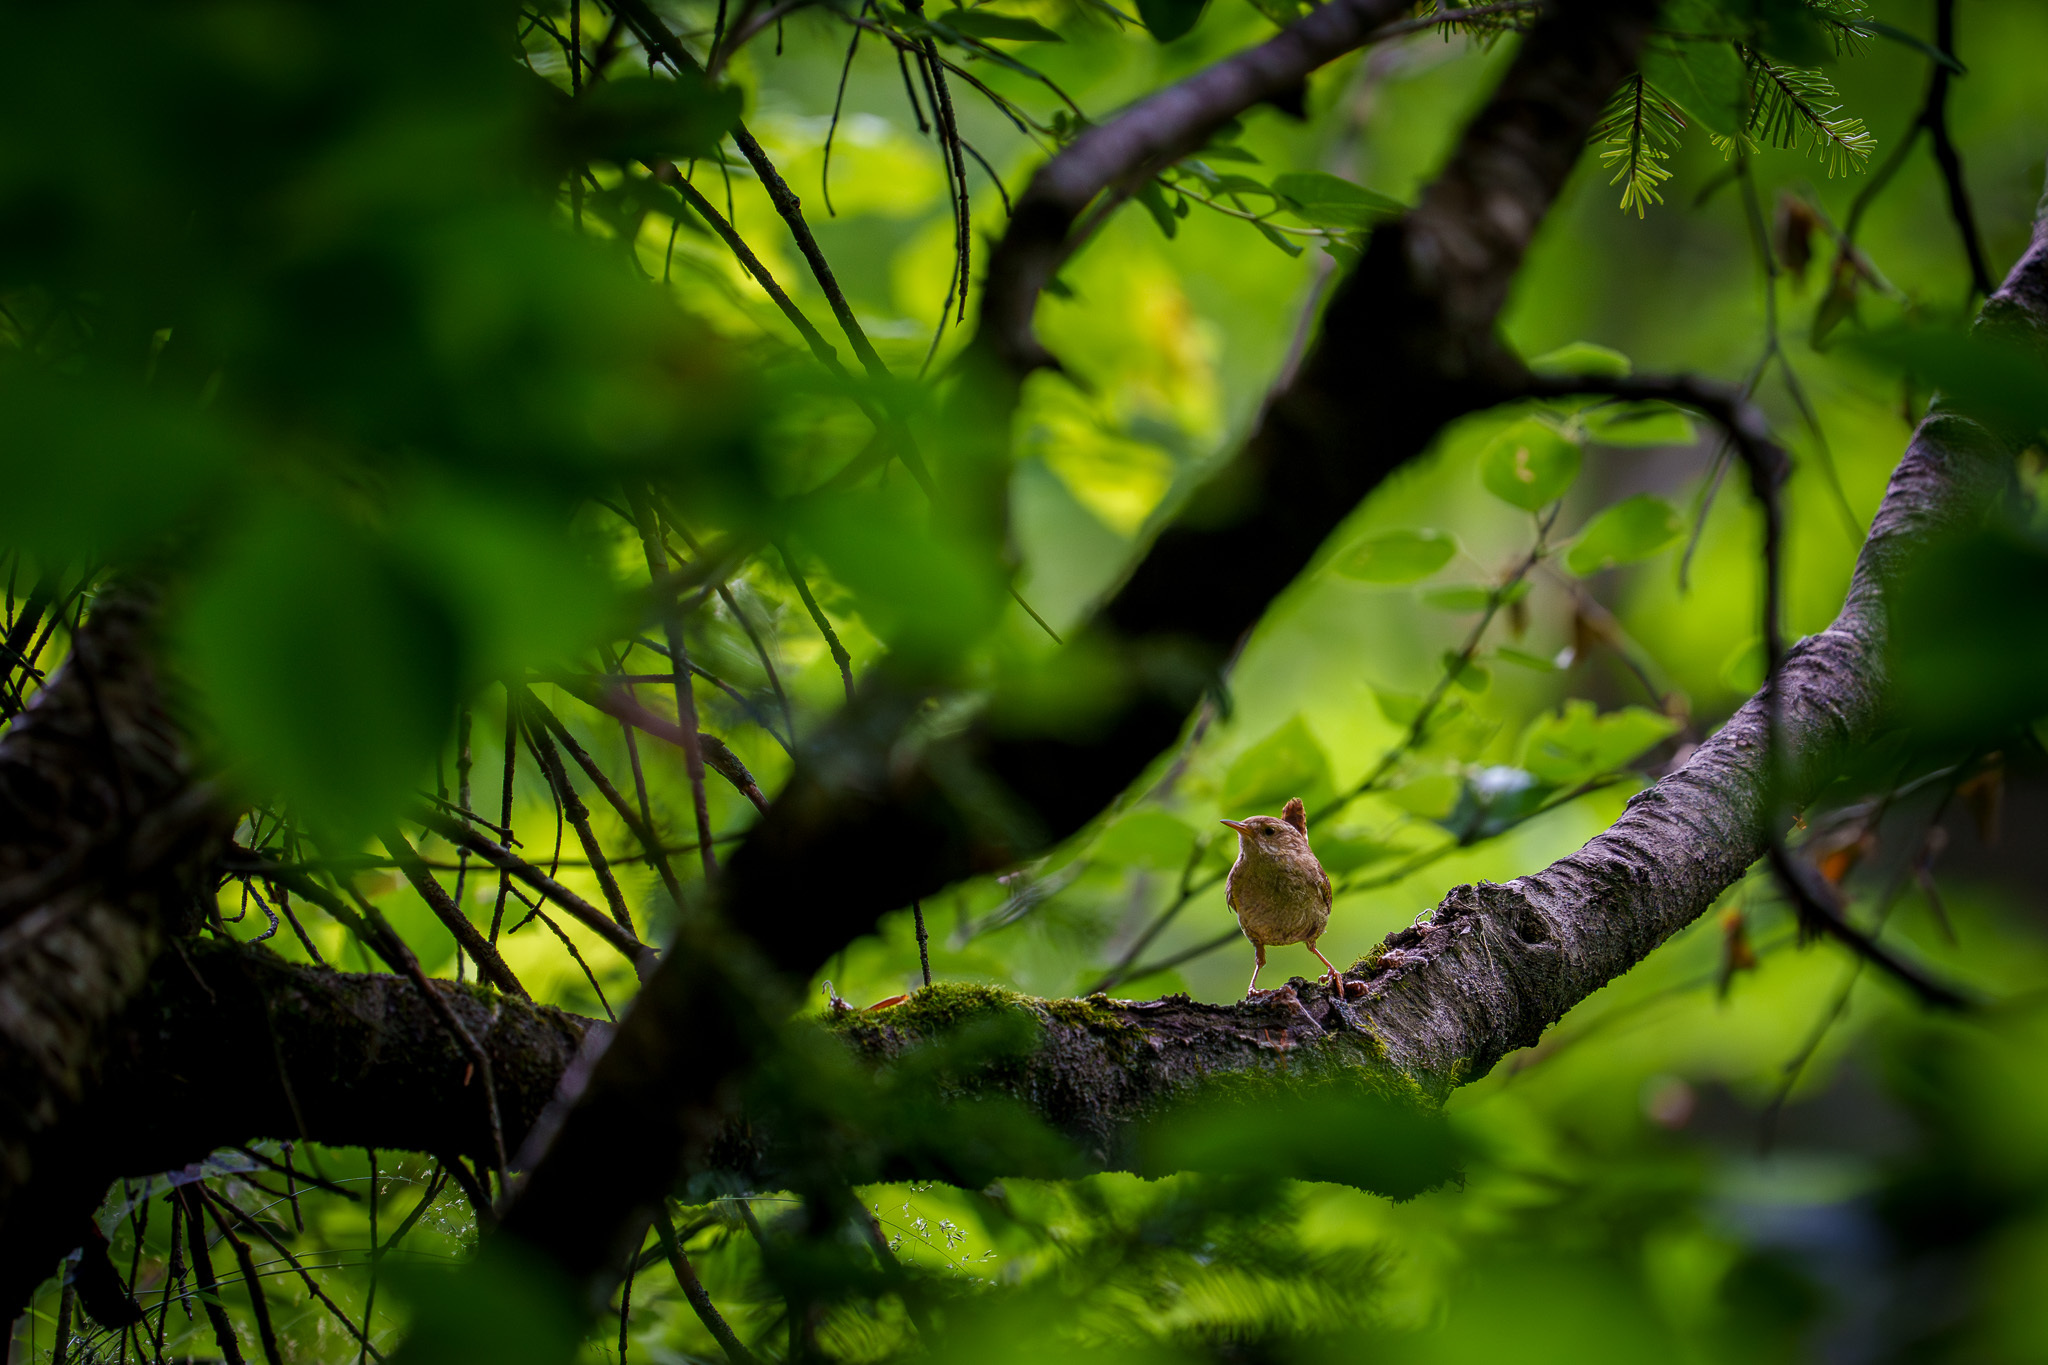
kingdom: Animalia
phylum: Chordata
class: Aves
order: Passeriformes
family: Troglodytidae
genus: Troglodytes
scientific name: Troglodytes troglodytes
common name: Eurasian wren
